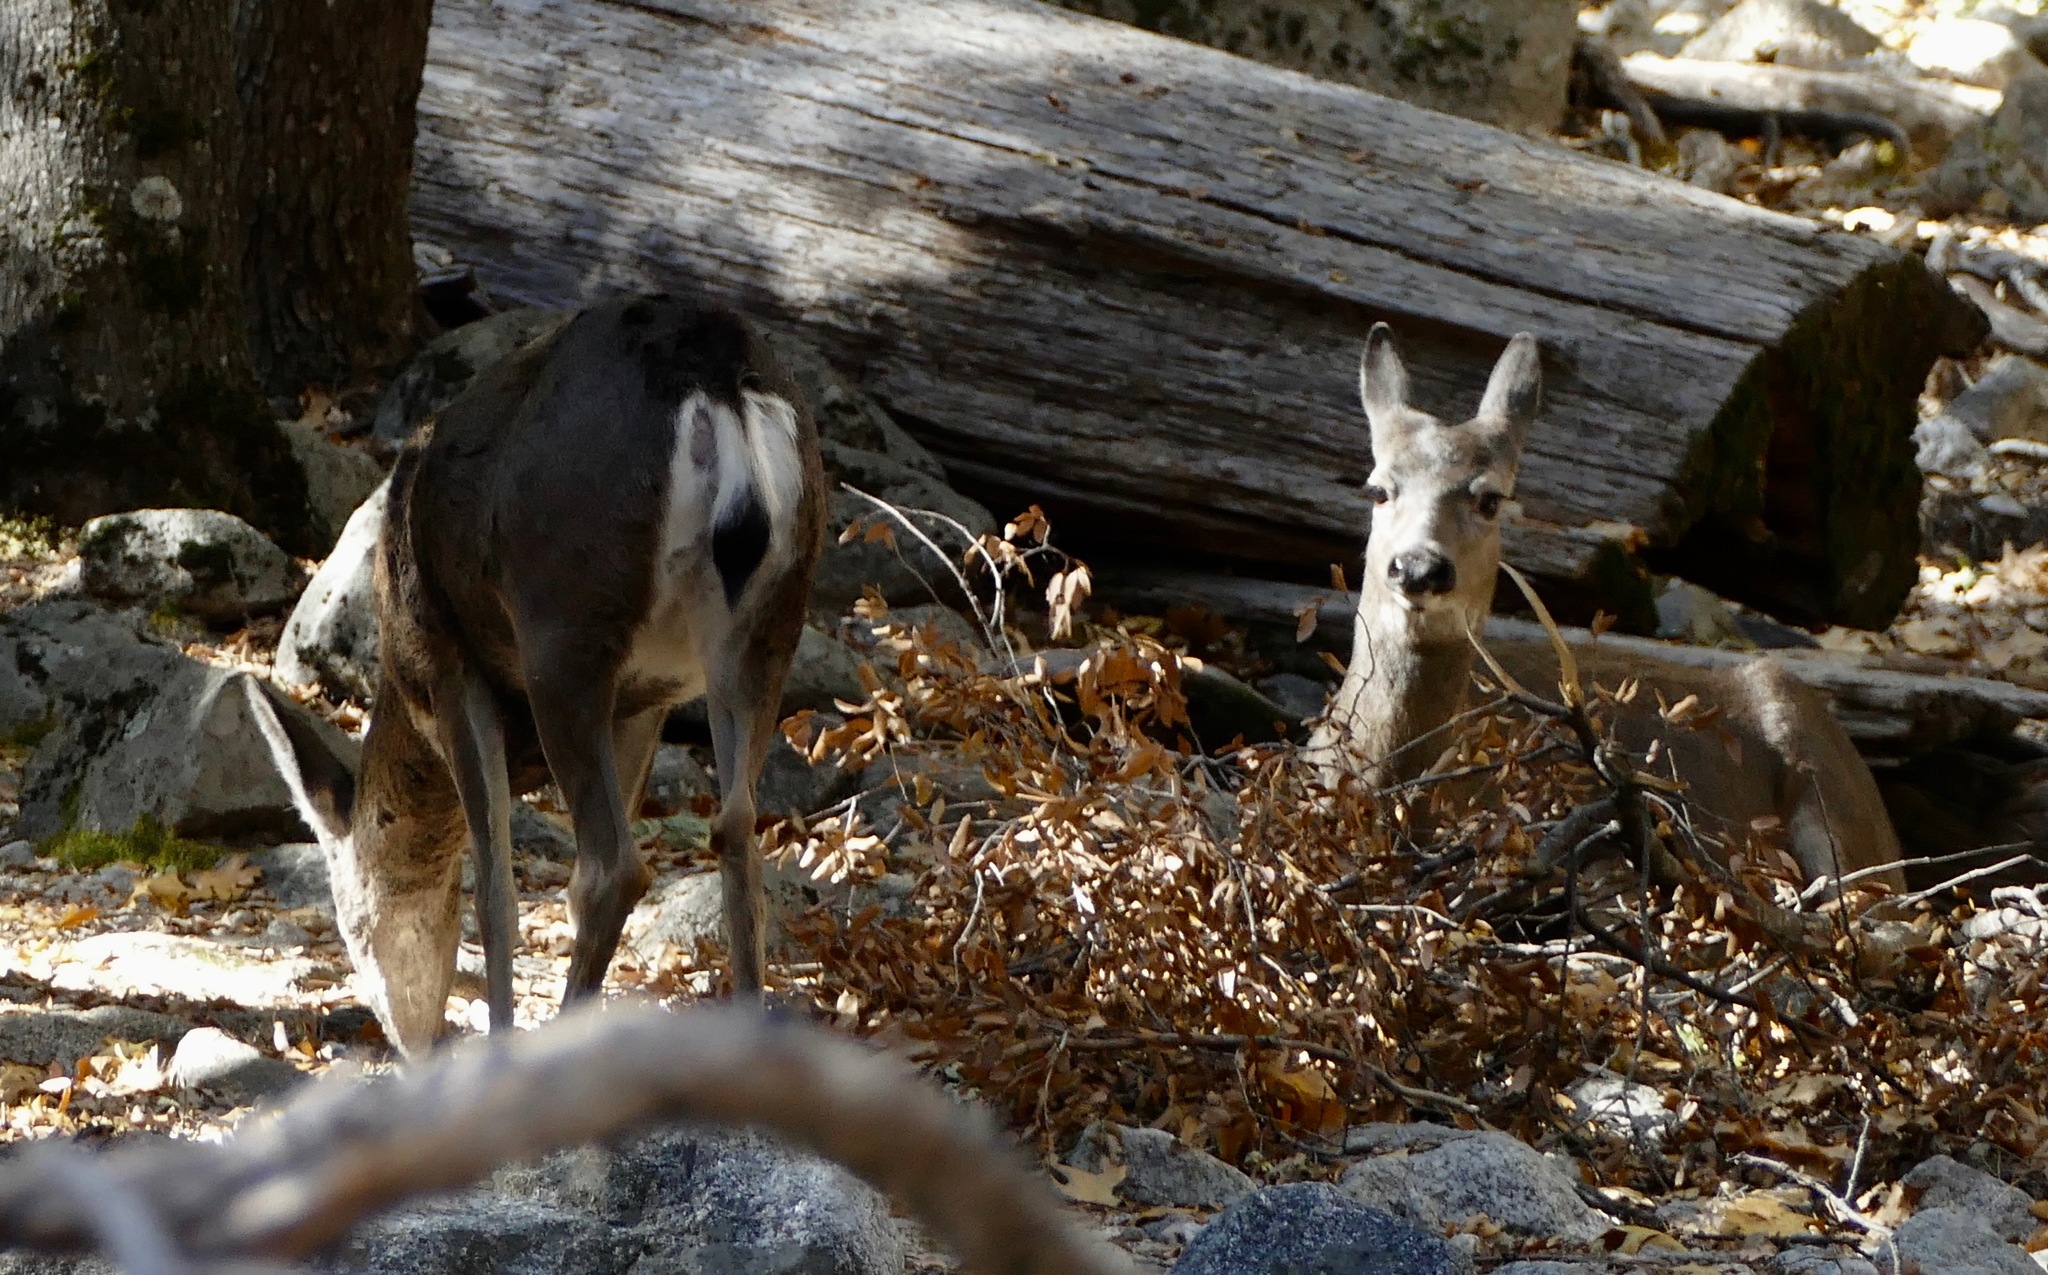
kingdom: Animalia
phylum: Chordata
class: Mammalia
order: Artiodactyla
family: Cervidae
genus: Odocoileus
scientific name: Odocoileus hemionus
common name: Mule deer
